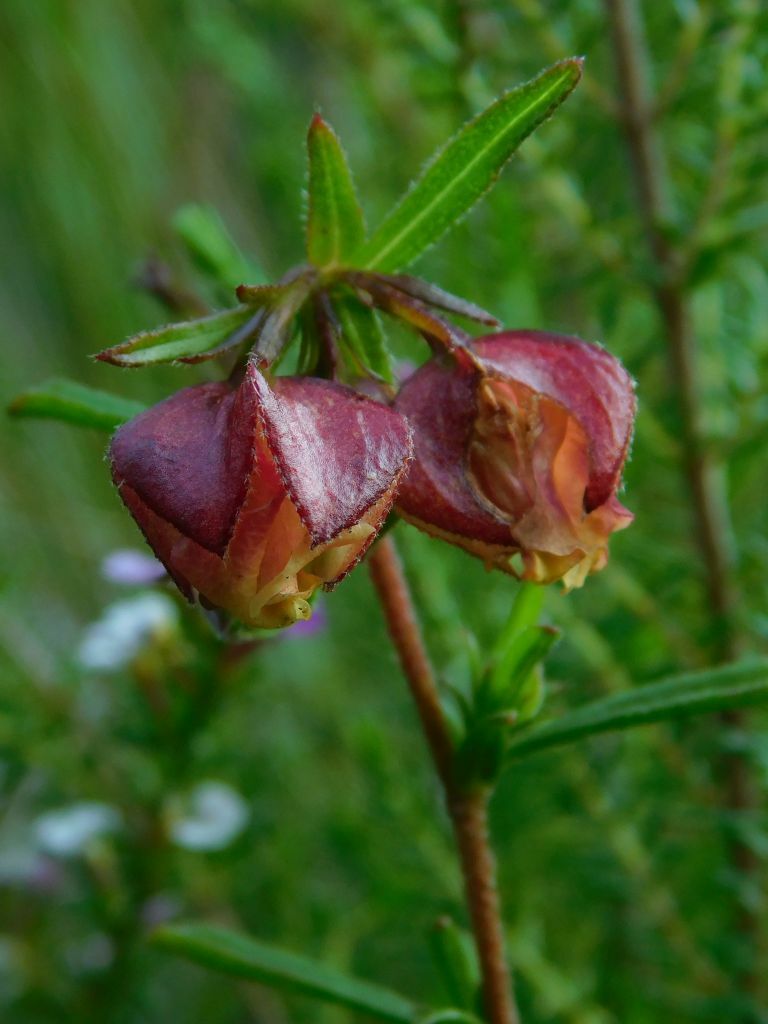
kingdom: Plantae
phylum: Tracheophyta
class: Magnoliopsida
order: Malvales
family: Malvaceae
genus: Hermannia
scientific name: Hermannia angularis
